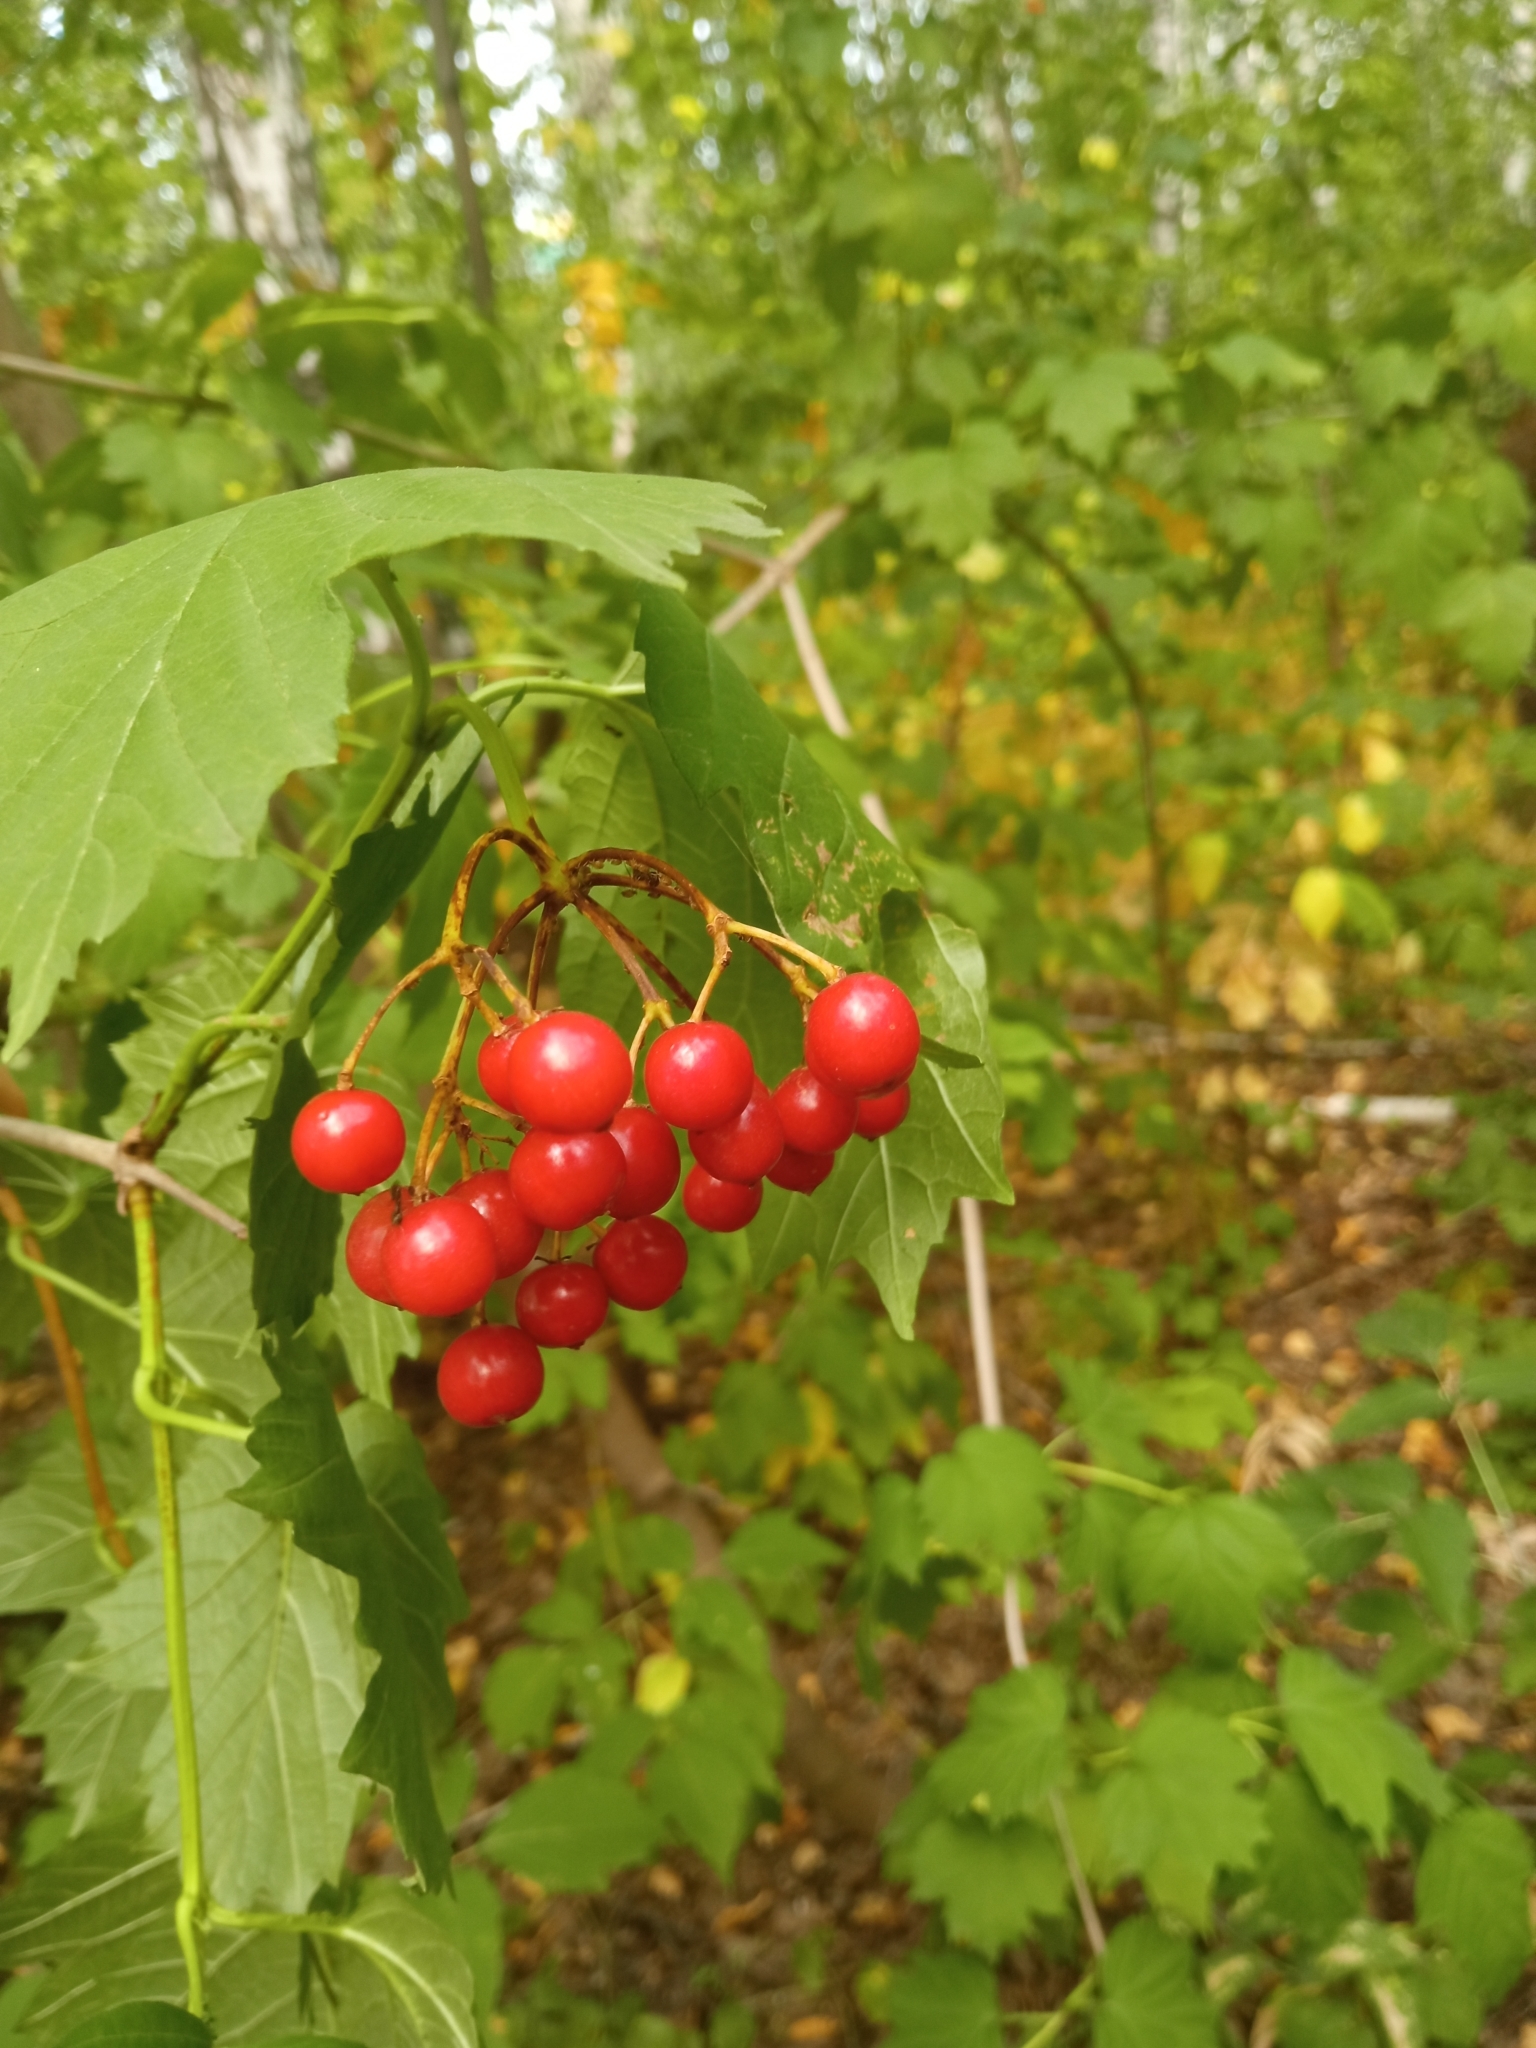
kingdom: Plantae
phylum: Tracheophyta
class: Magnoliopsida
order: Dipsacales
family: Viburnaceae
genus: Viburnum
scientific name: Viburnum opulus
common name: Guelder-rose
